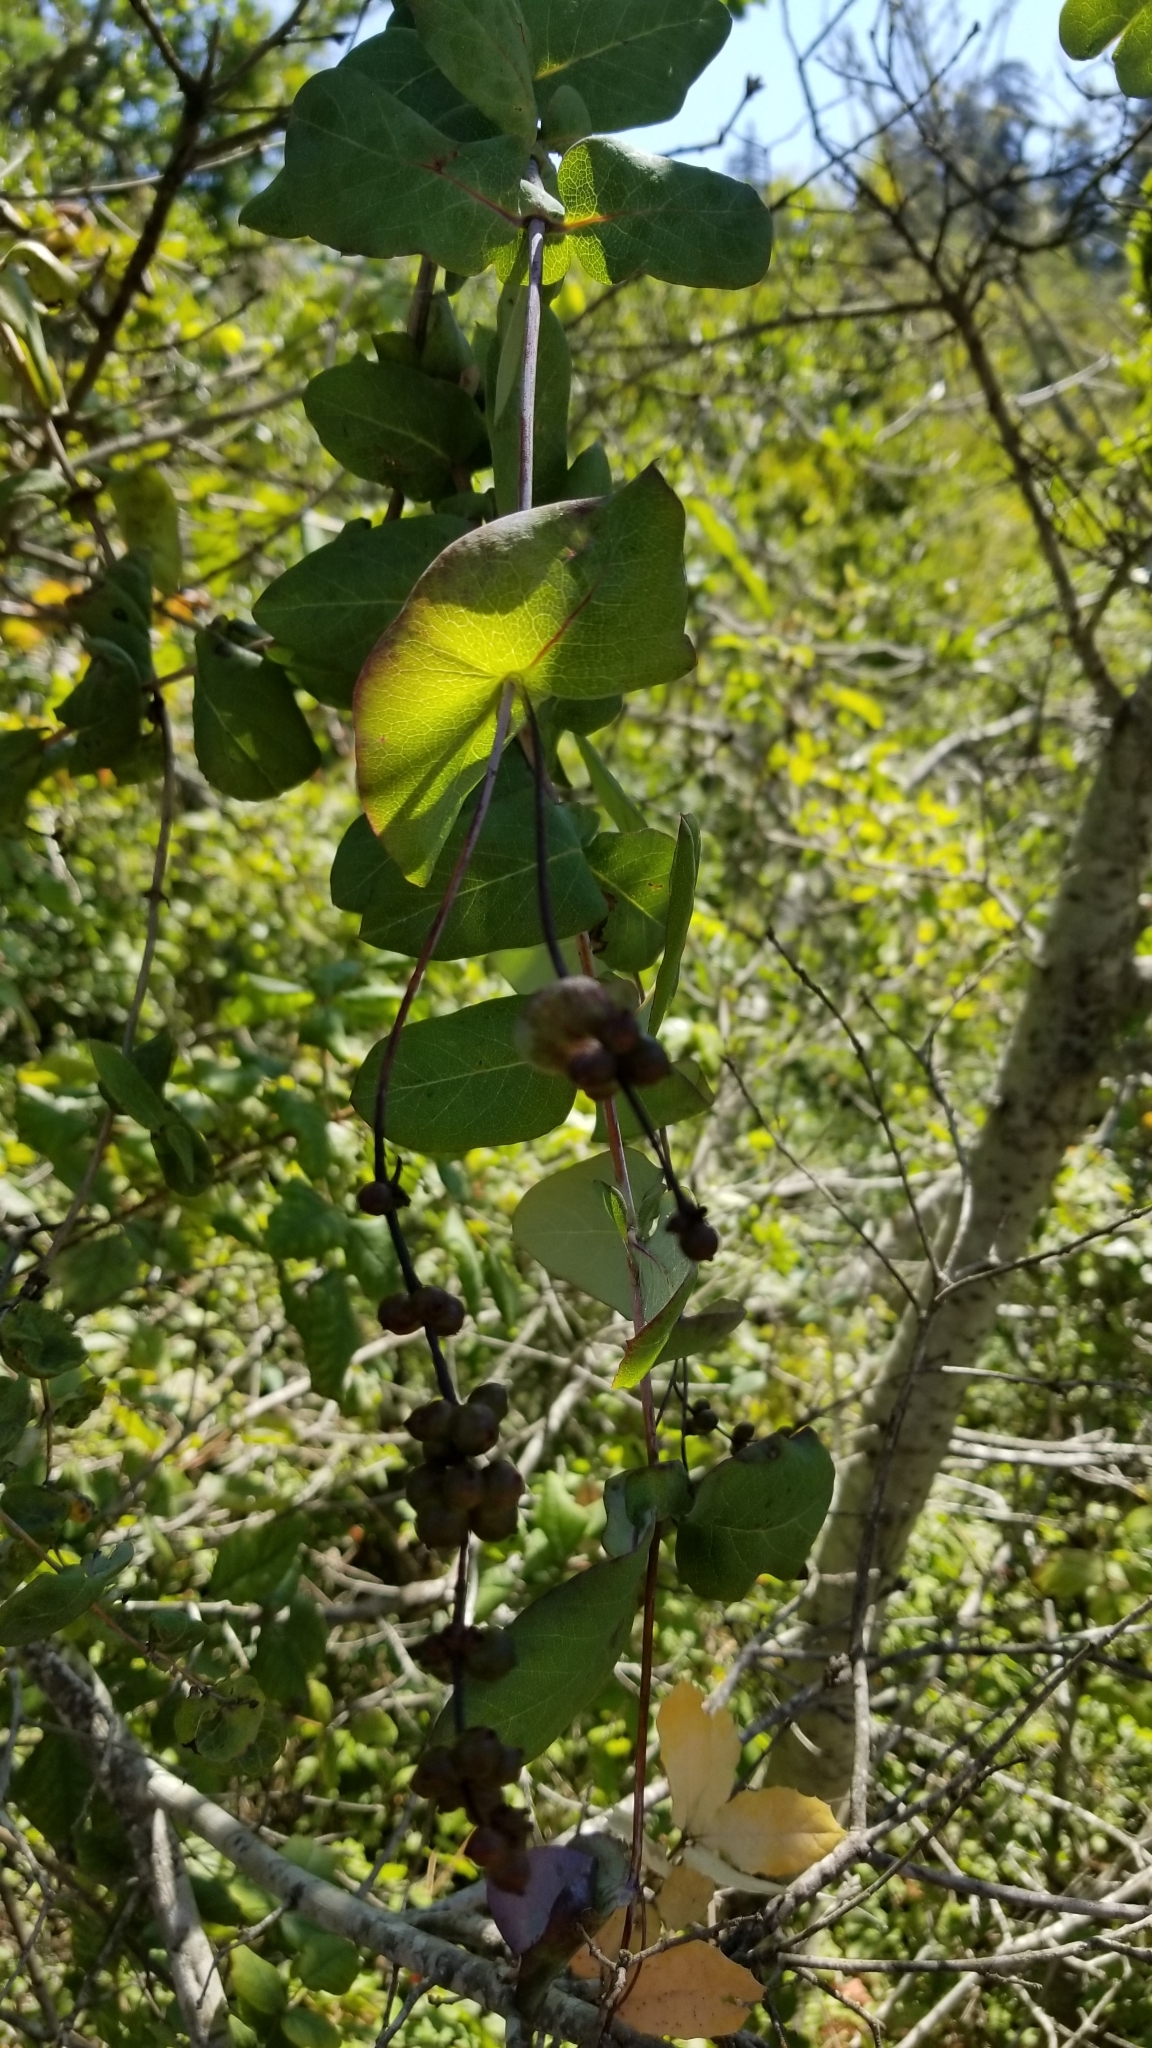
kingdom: Plantae
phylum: Tracheophyta
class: Magnoliopsida
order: Dipsacales
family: Caprifoliaceae
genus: Lonicera
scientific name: Lonicera hispidula
